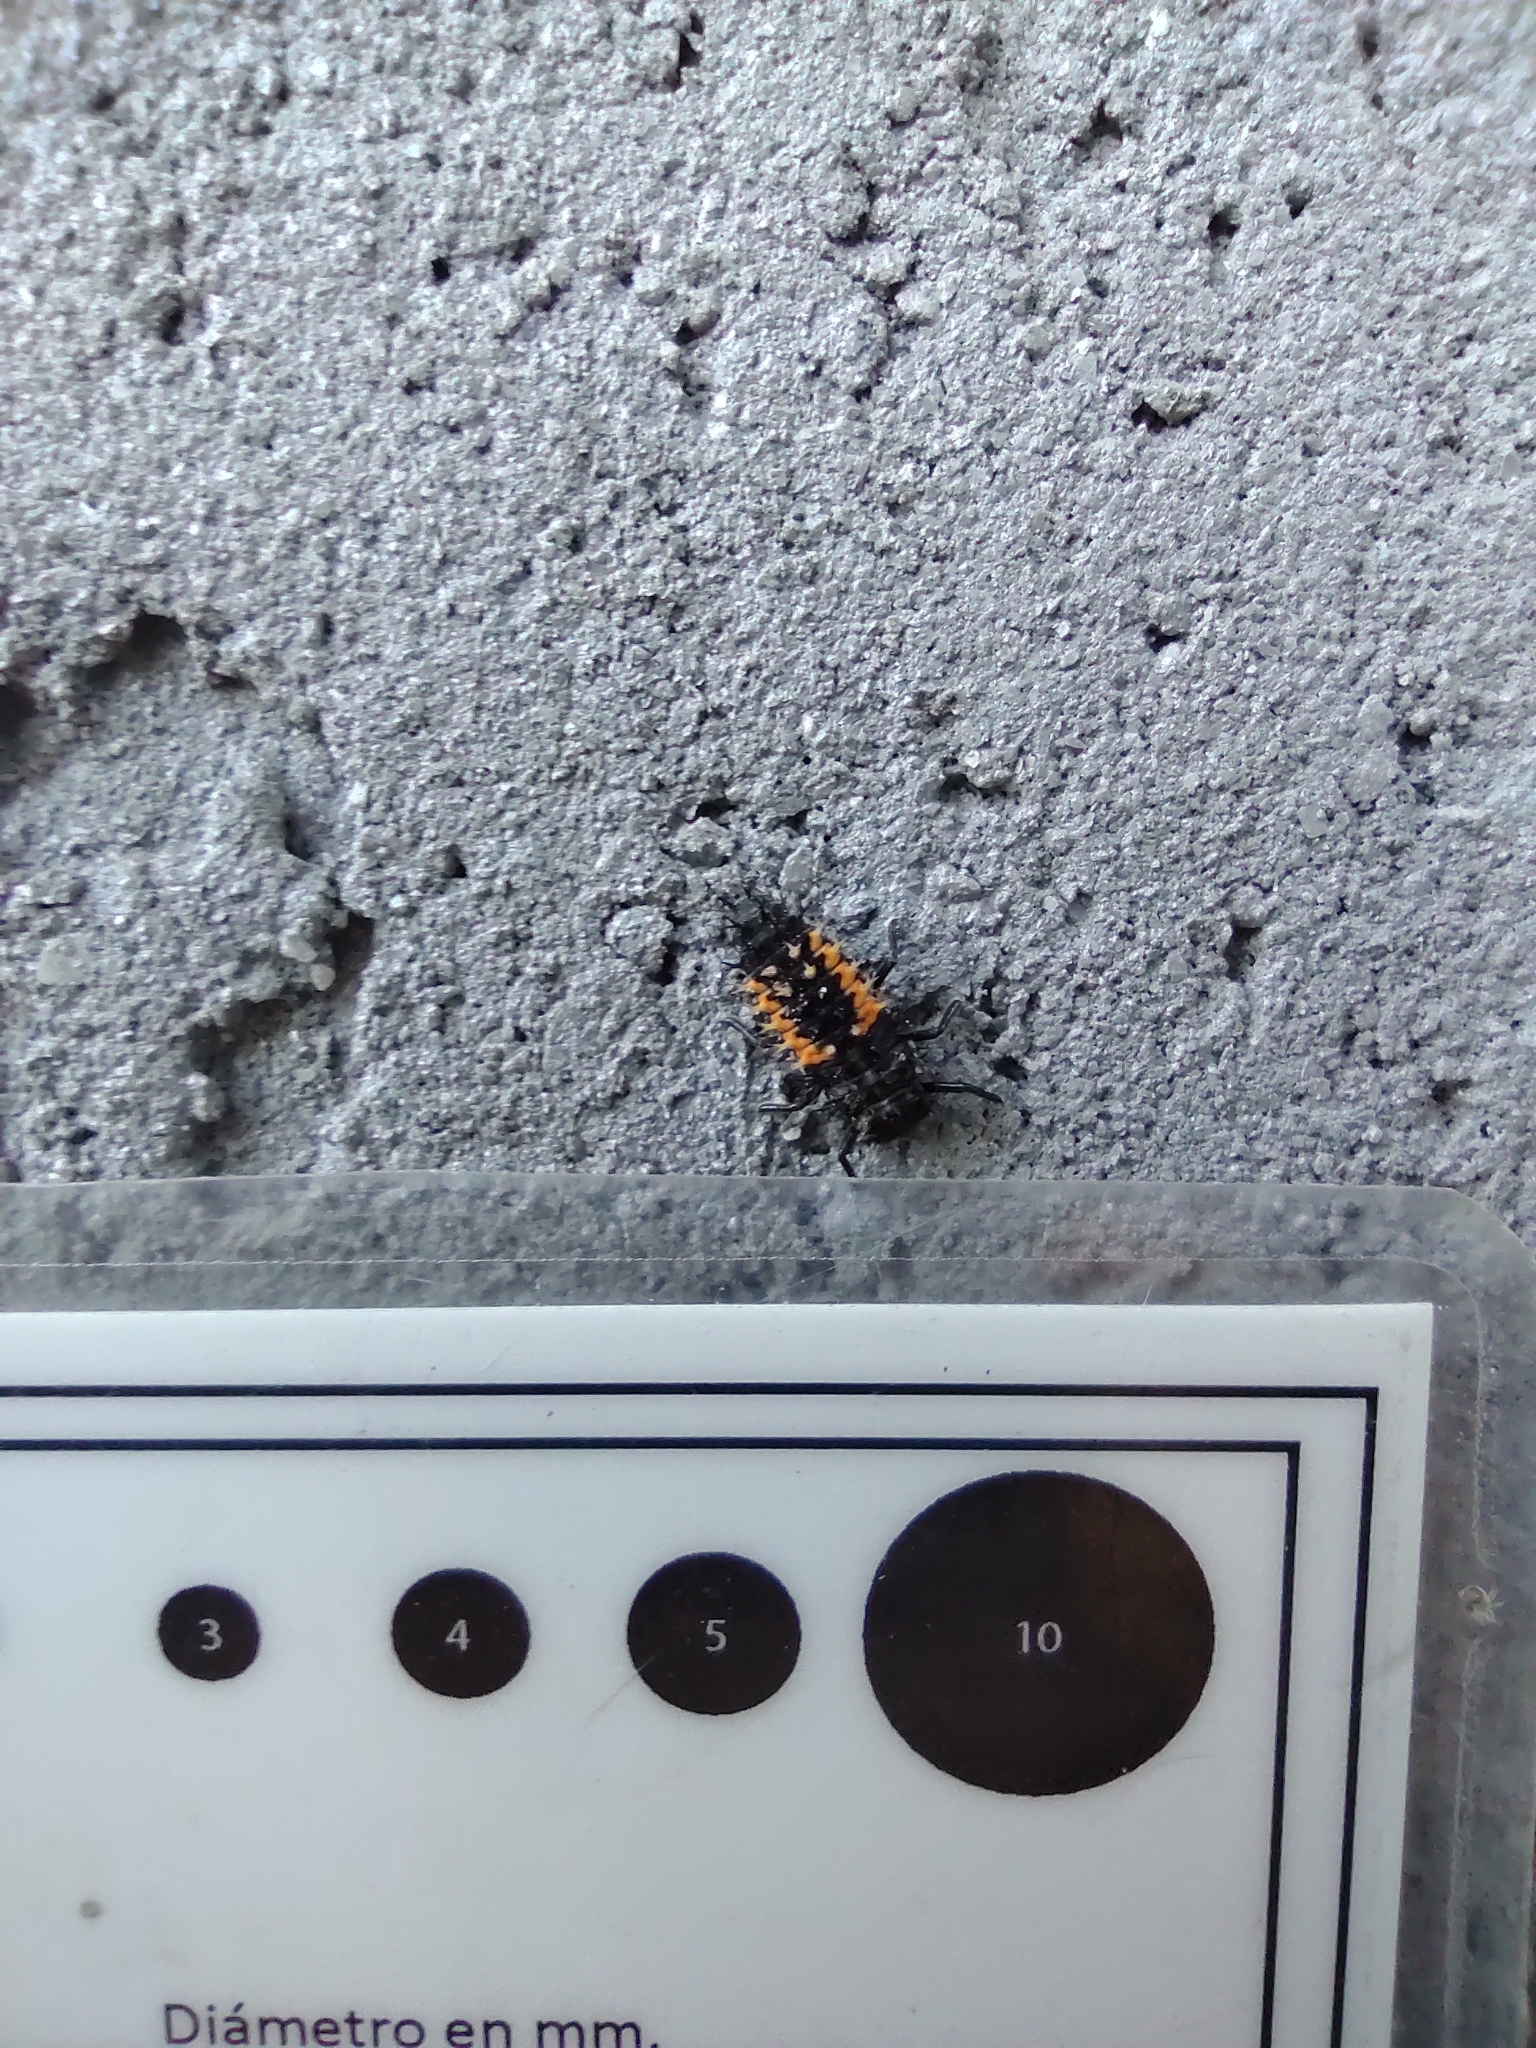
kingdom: Animalia
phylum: Arthropoda
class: Insecta
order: Coleoptera
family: Coccinellidae
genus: Harmonia
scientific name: Harmonia axyridis
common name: Harlequin ladybird
